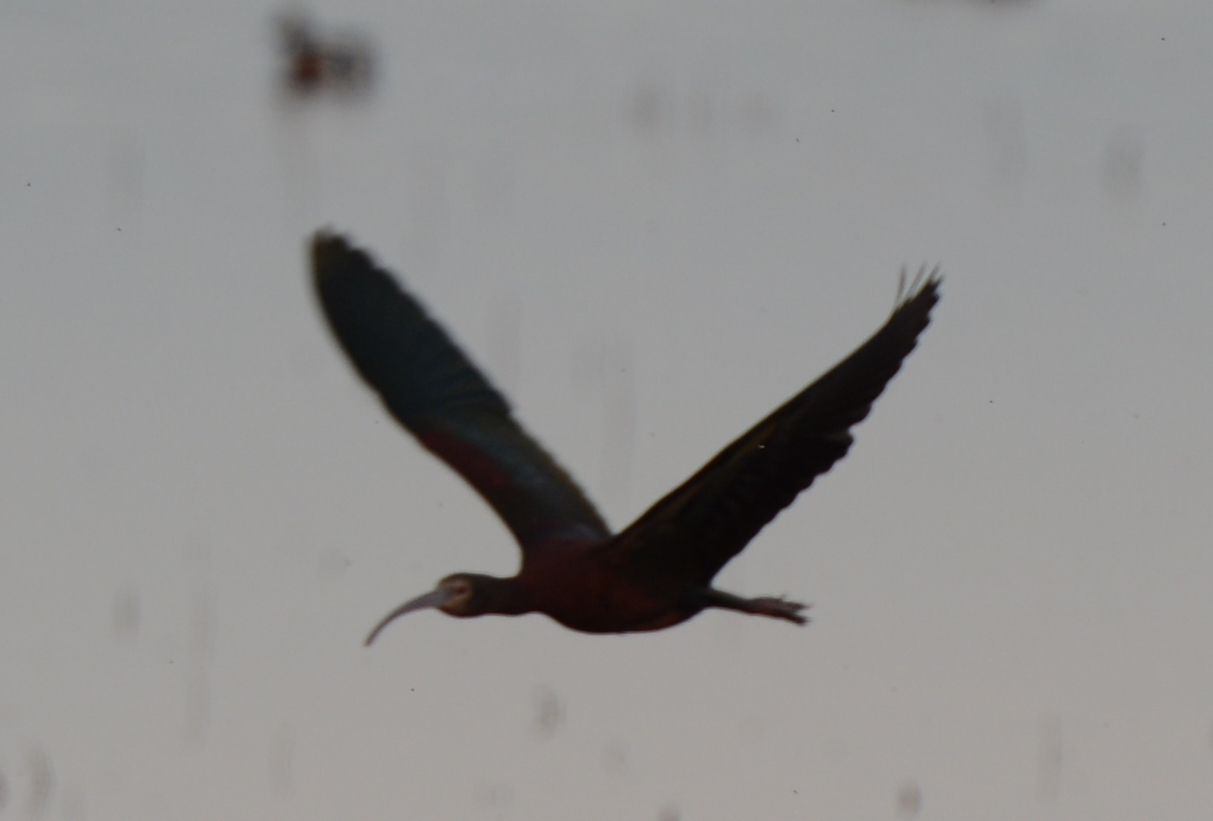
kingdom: Animalia
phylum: Chordata
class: Aves
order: Pelecaniformes
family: Threskiornithidae
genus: Plegadis
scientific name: Plegadis chihi
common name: White-faced ibis
